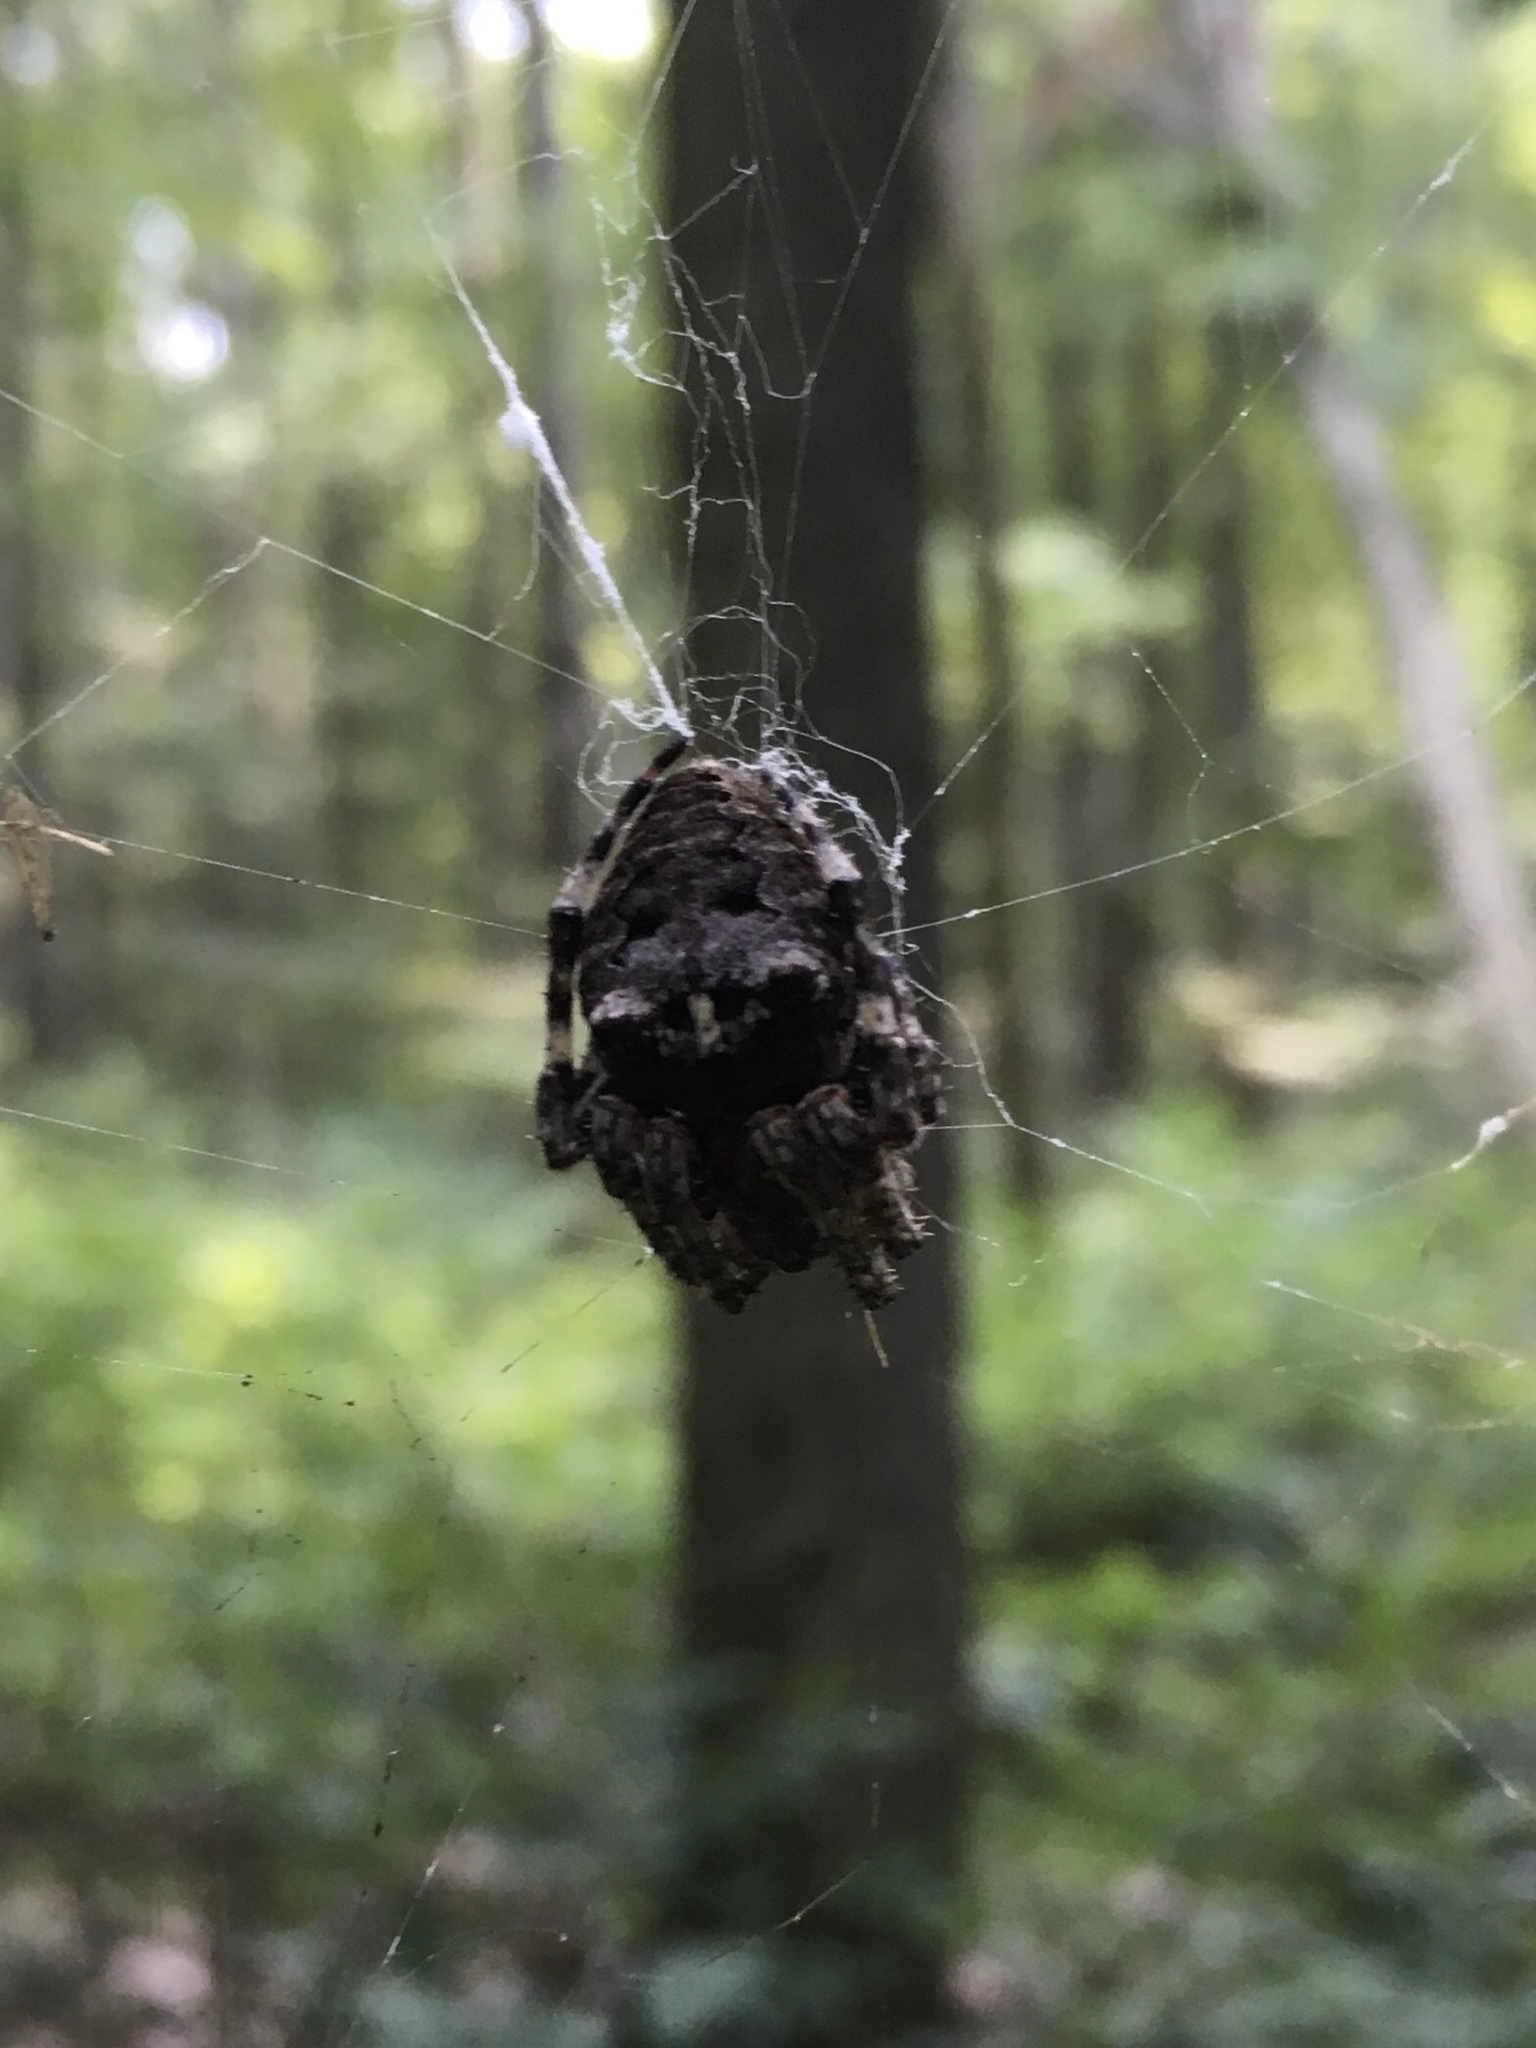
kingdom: Animalia
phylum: Arthropoda
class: Arachnida
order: Araneae
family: Araneidae
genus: Araneus
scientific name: Araneus bicentenarius
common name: Giant lichen orbweaver
